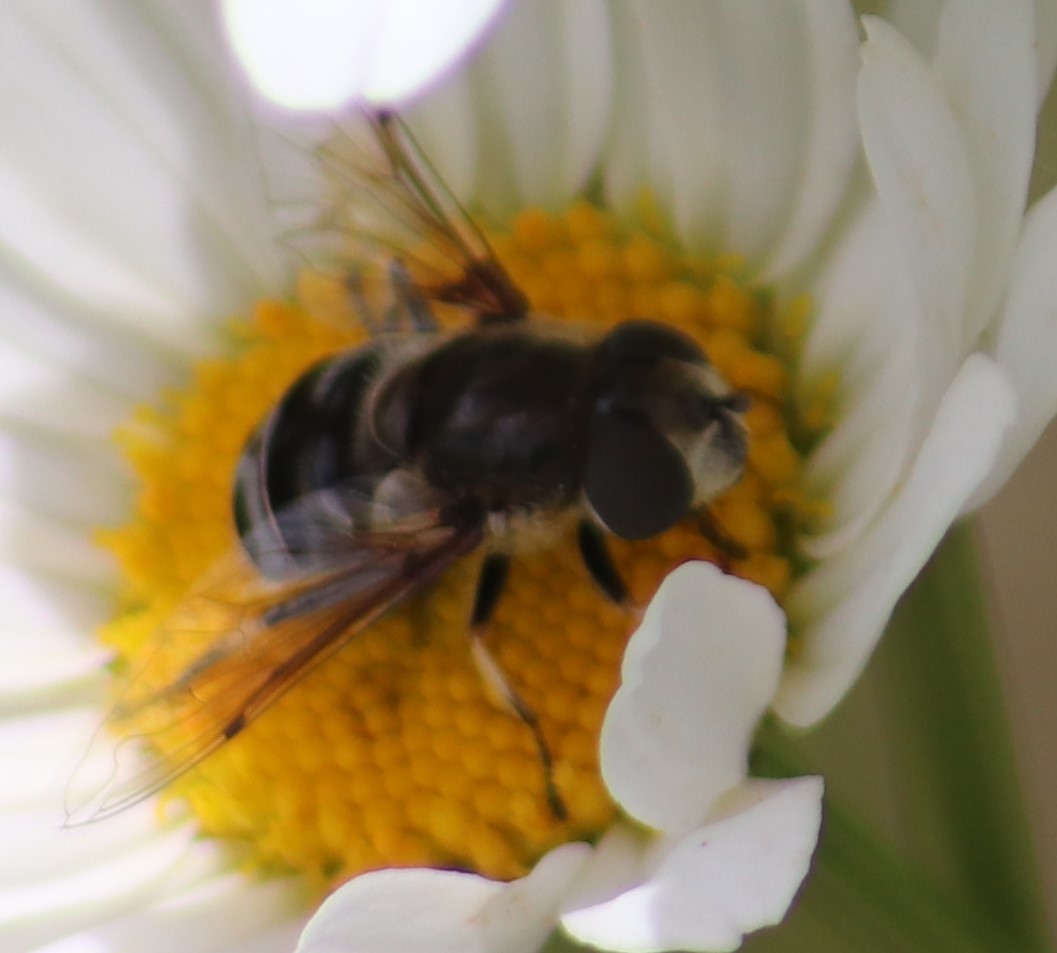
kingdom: Animalia
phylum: Arthropoda
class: Insecta
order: Diptera
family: Syrphidae
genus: Eristalis
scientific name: Eristalis dimidiata
